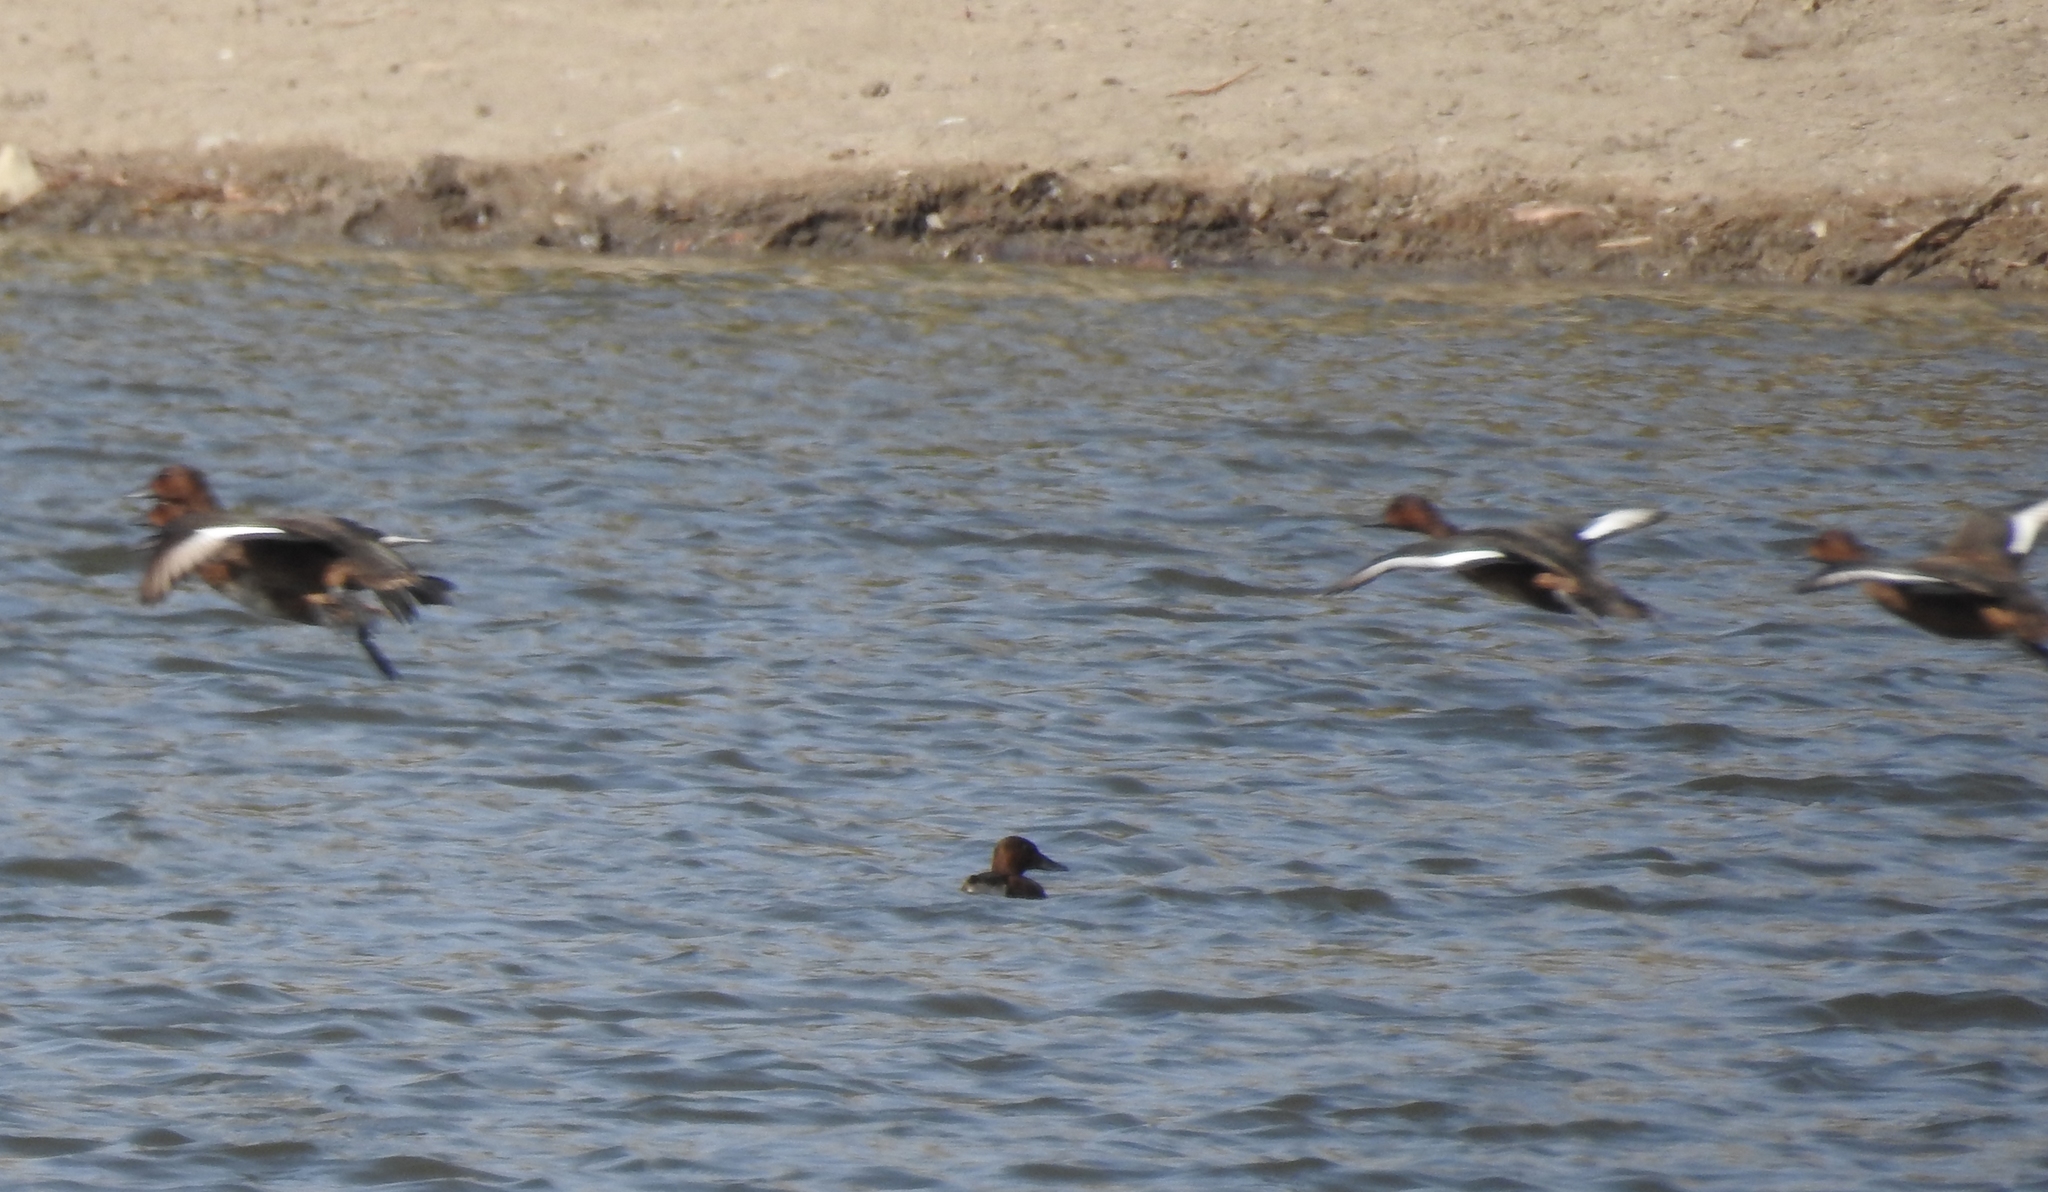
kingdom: Animalia
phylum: Chordata
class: Aves
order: Anseriformes
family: Anatidae
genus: Aythya
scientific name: Aythya nyroca
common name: Ferruginous duck
